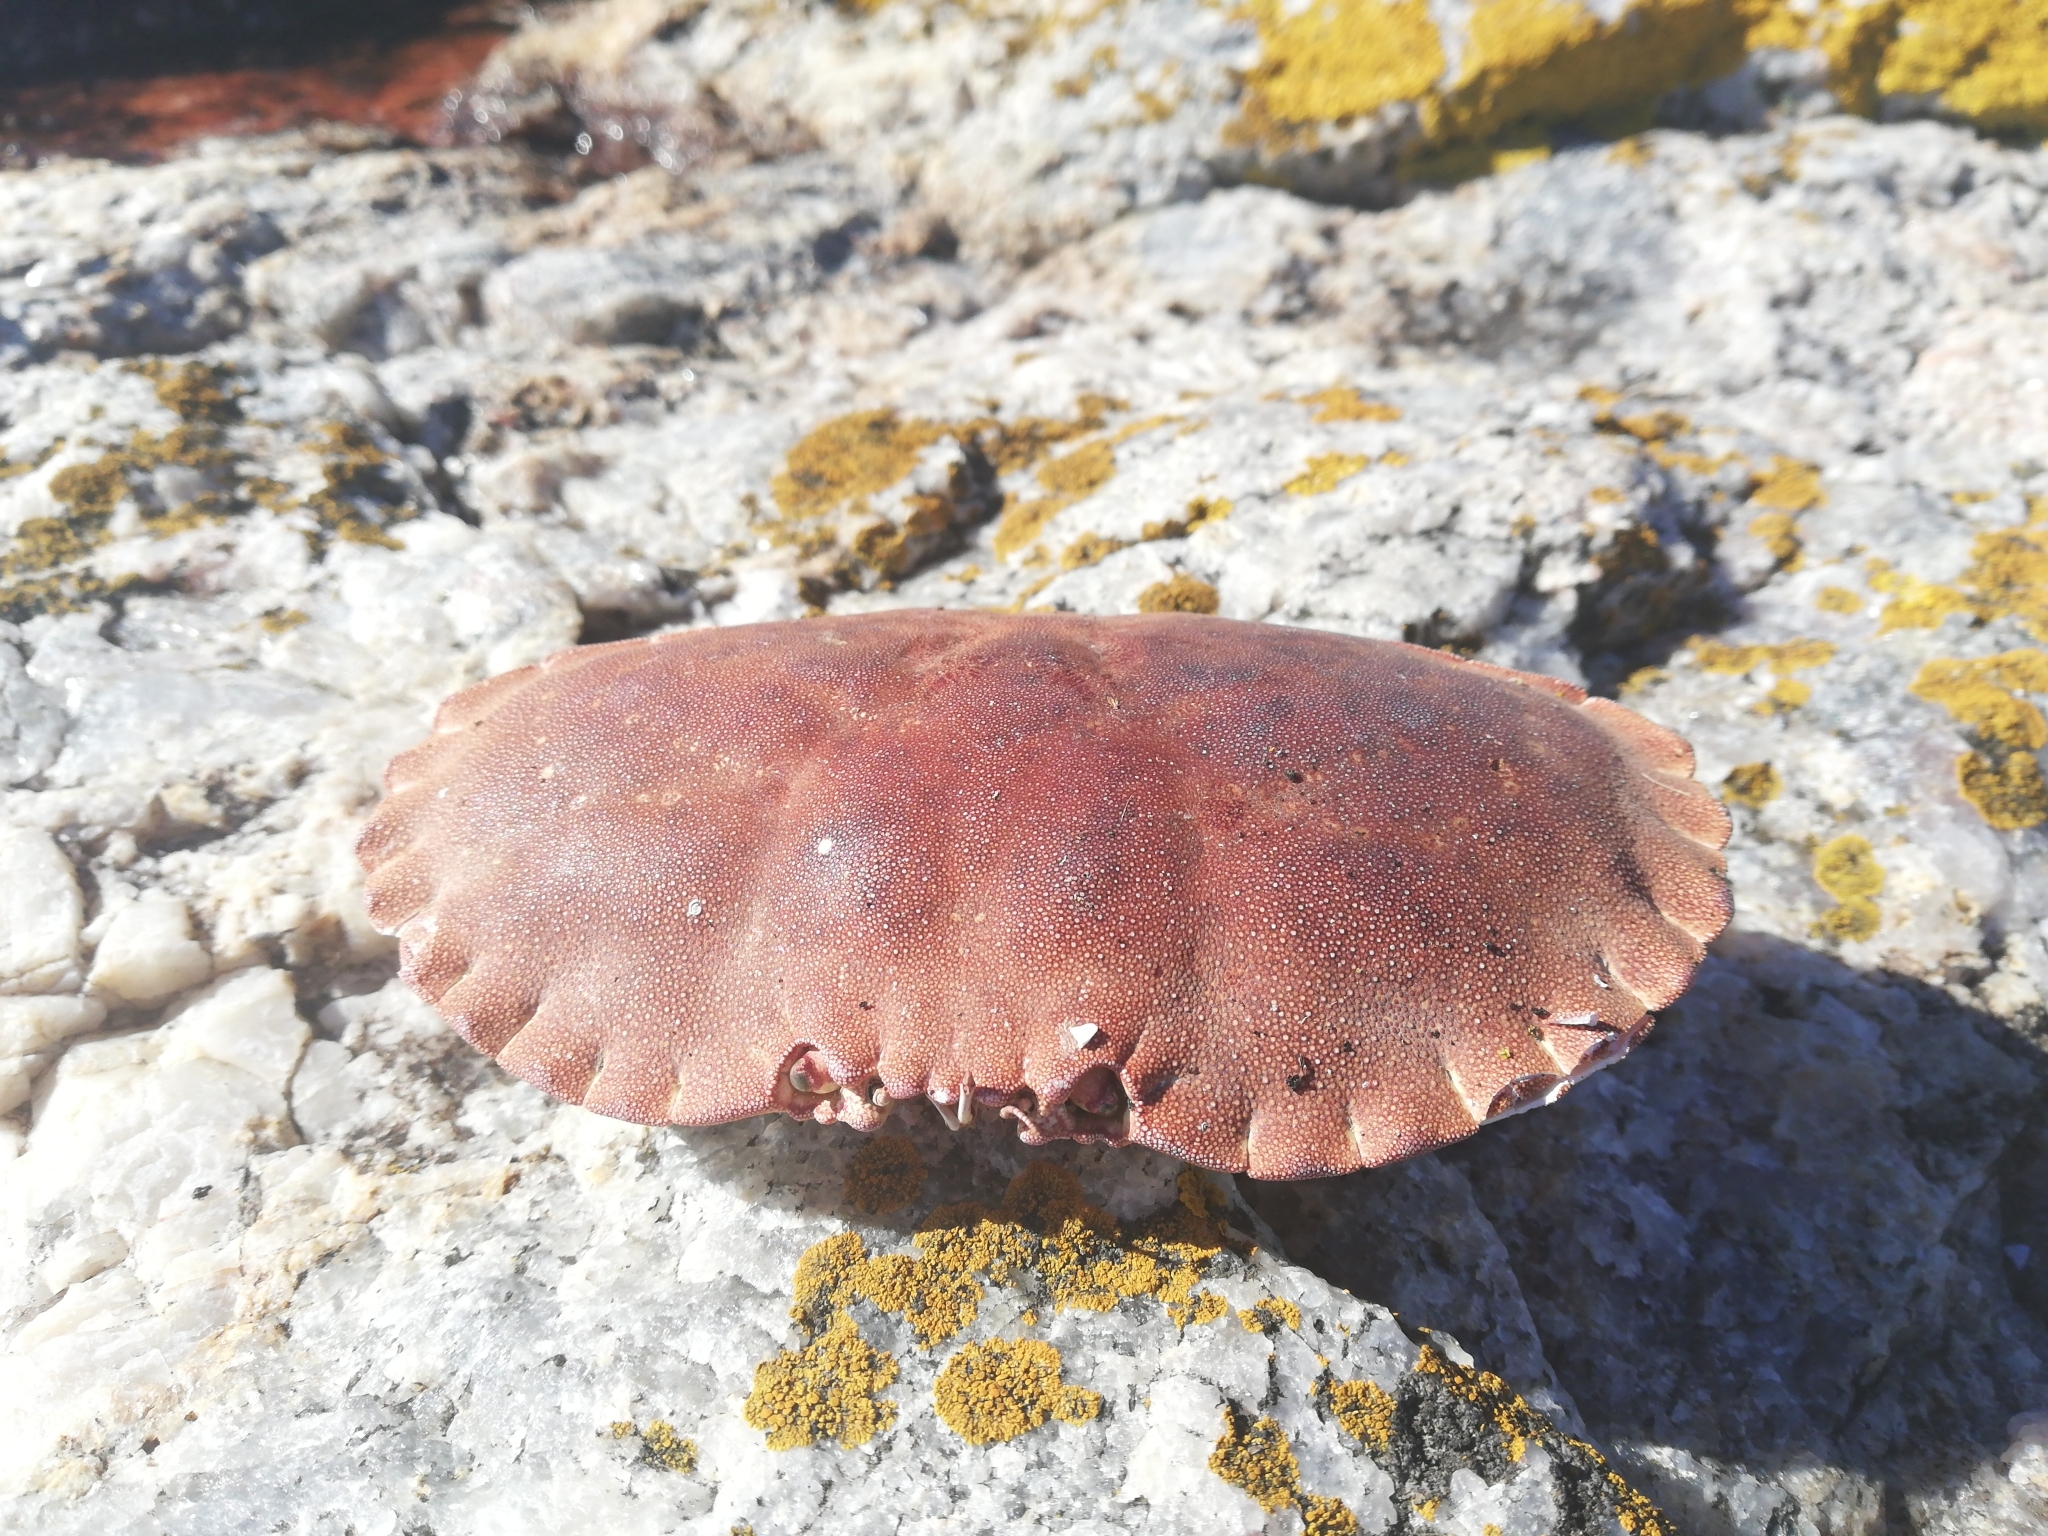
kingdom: Animalia
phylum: Arthropoda
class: Malacostraca
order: Decapoda
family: Cancridae
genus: Cancer
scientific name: Cancer pagurus
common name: Edible crab
